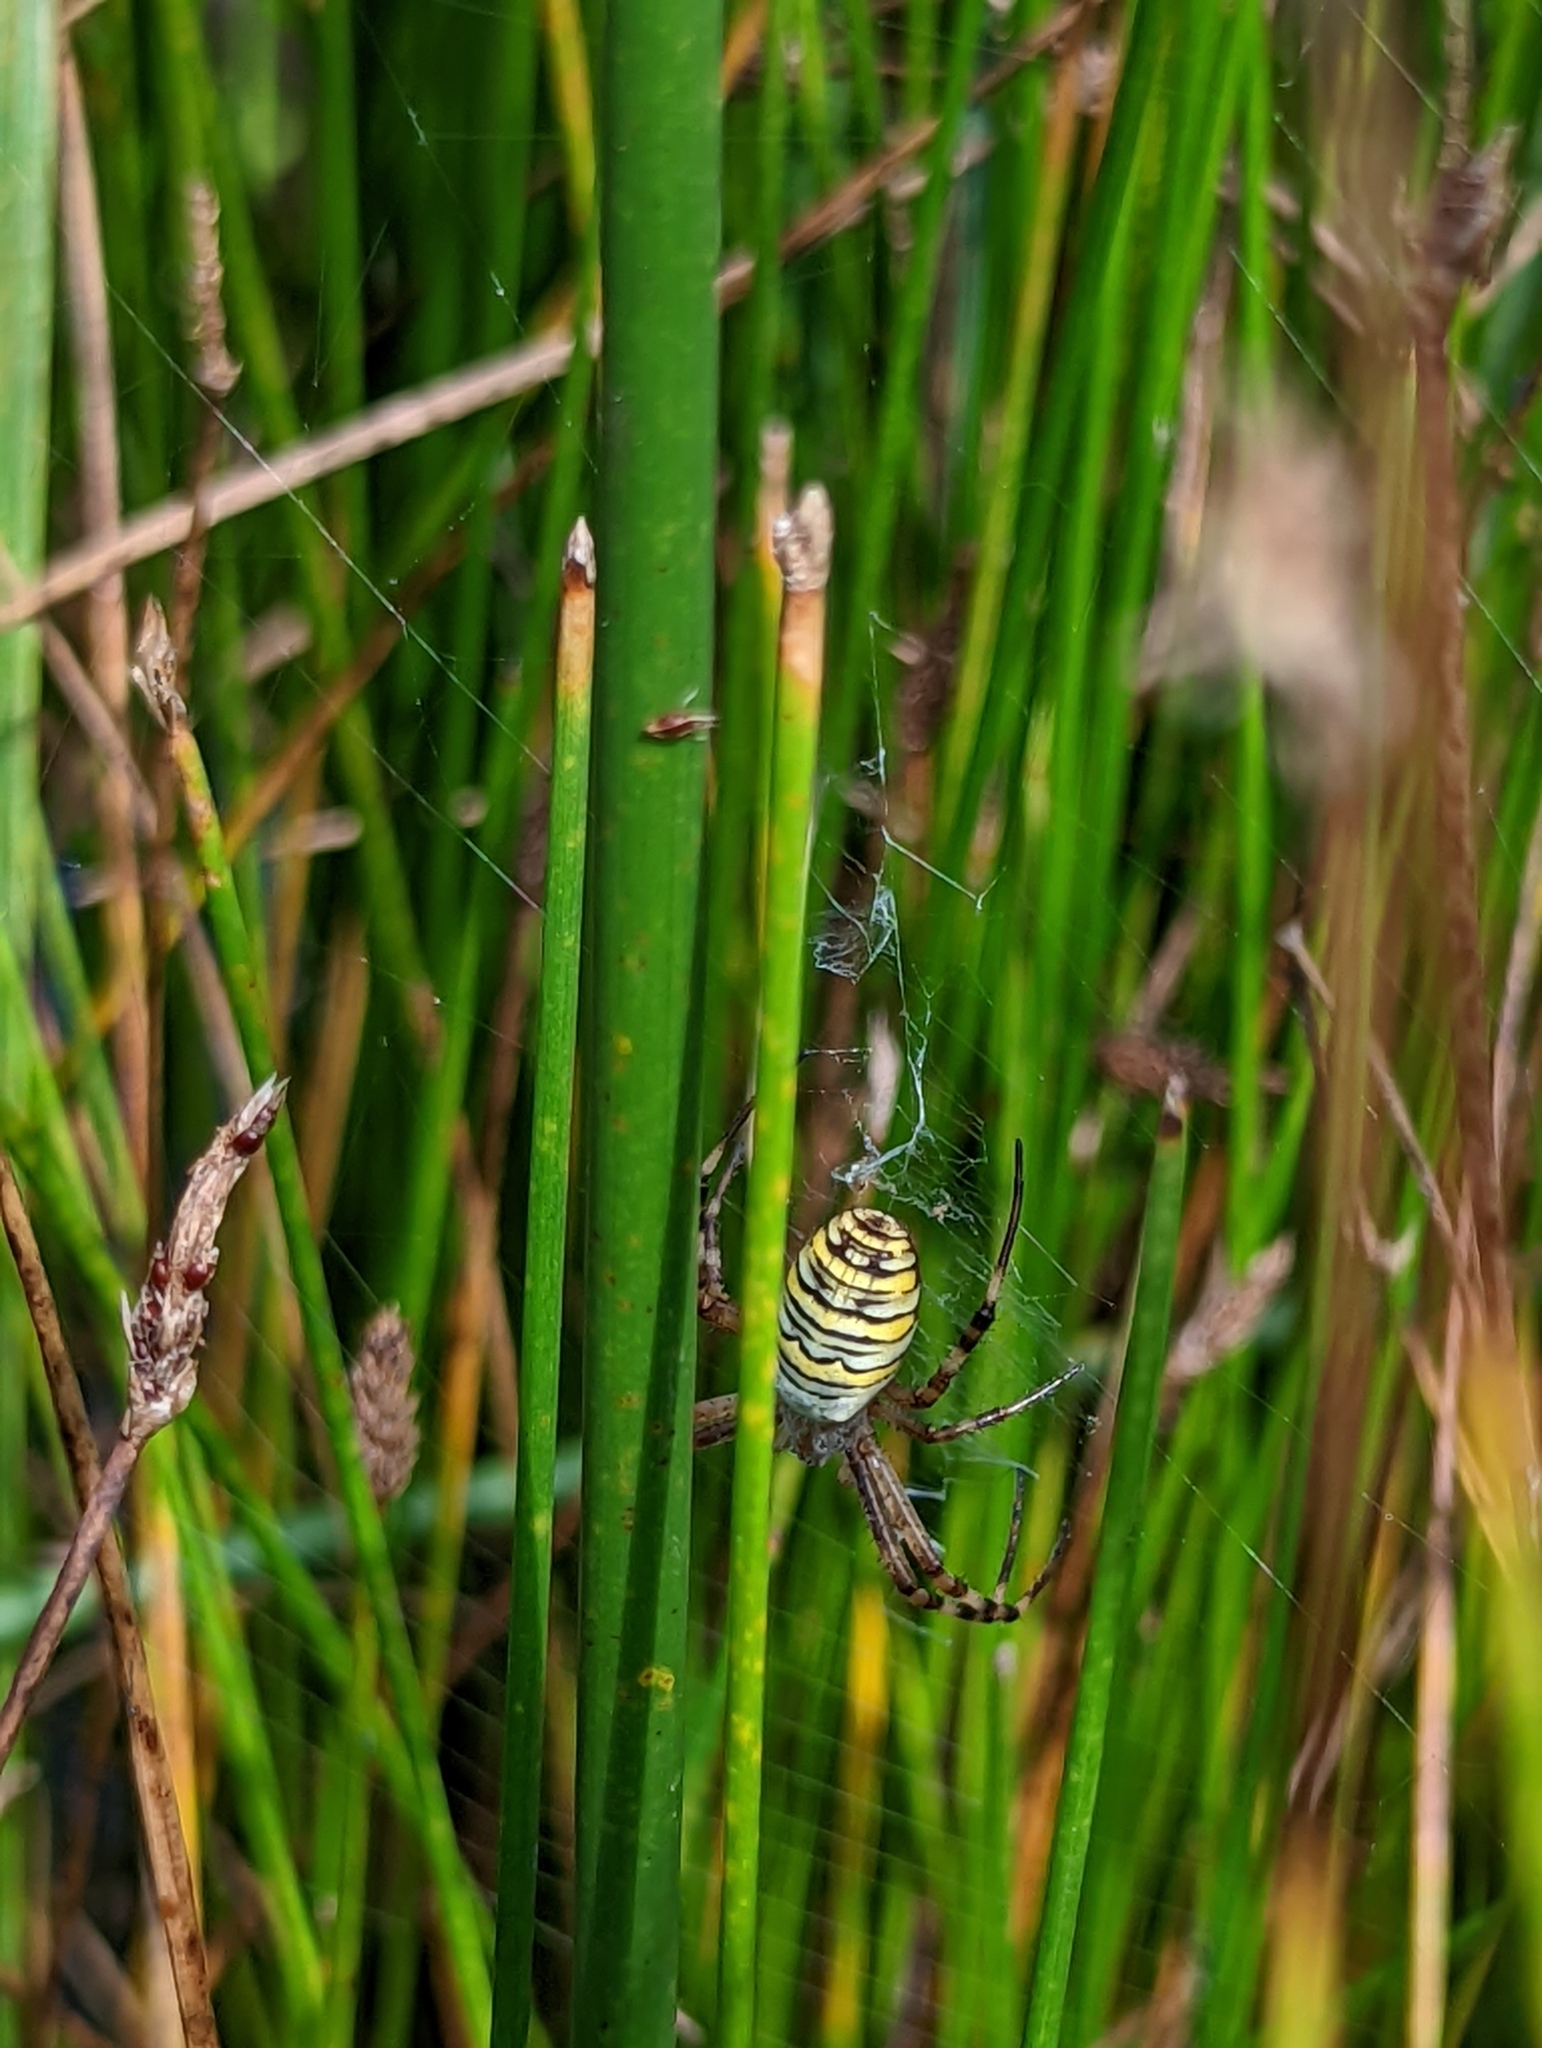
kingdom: Animalia
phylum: Arthropoda
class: Arachnida
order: Araneae
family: Araneidae
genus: Argiope
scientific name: Argiope bruennichi
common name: Wasp spider
